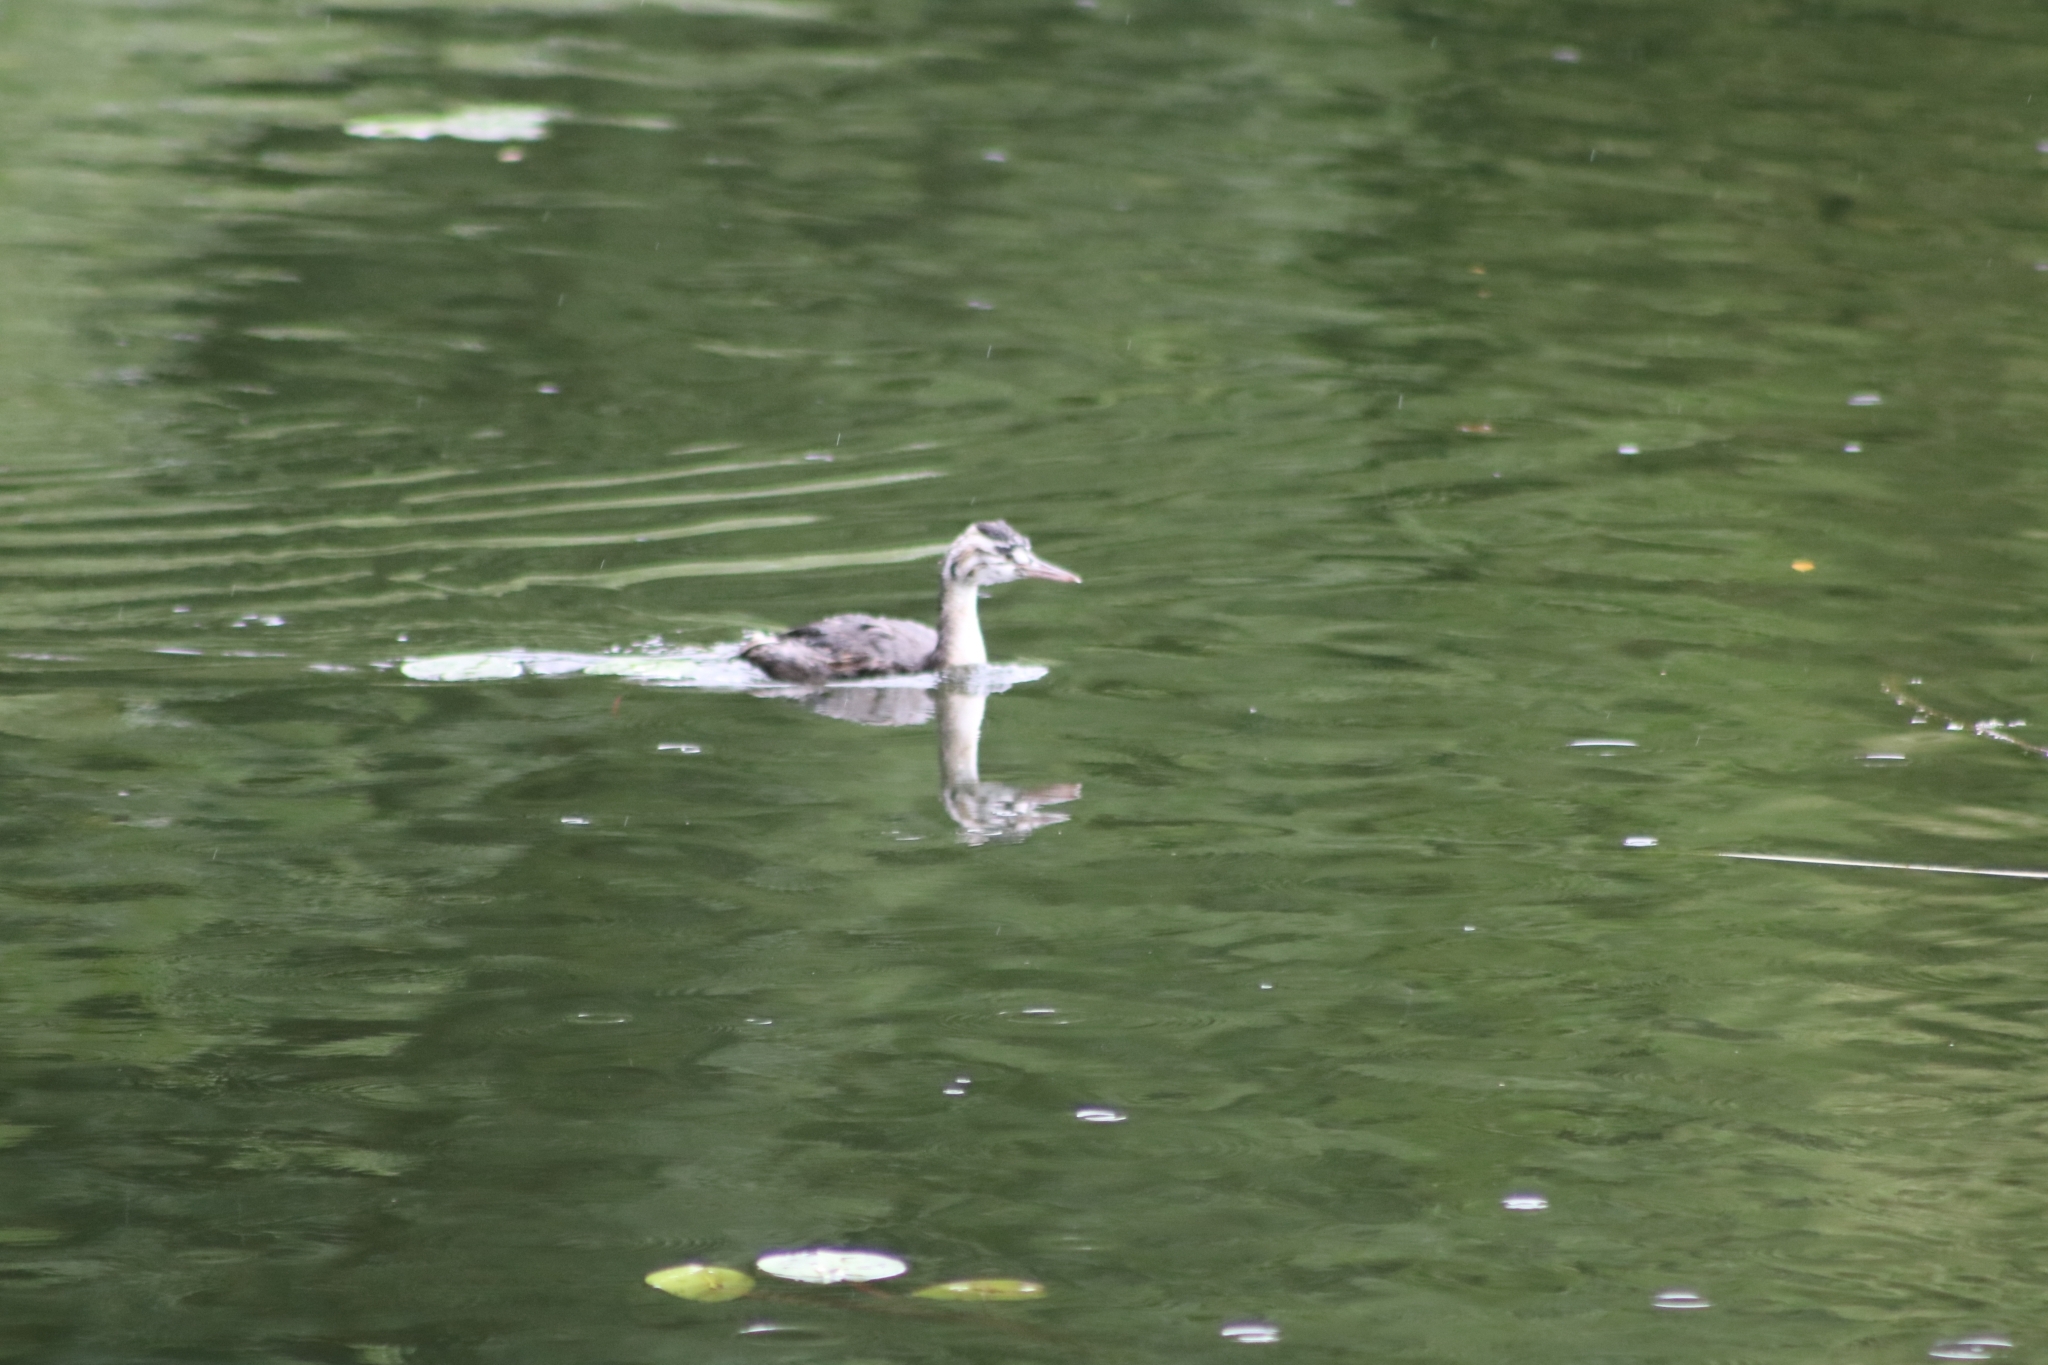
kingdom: Animalia
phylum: Chordata
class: Aves
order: Podicipediformes
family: Podicipedidae
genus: Podiceps
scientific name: Podiceps cristatus
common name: Great crested grebe
